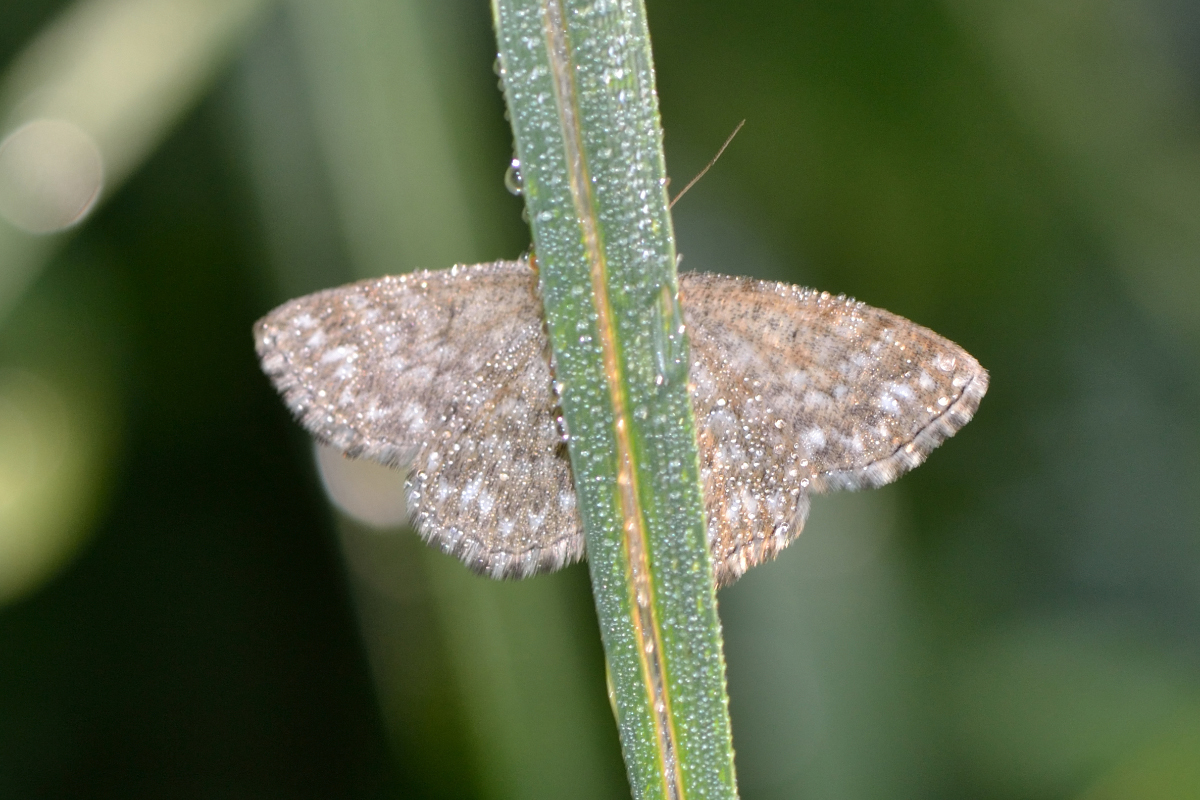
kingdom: Animalia
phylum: Arthropoda
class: Insecta
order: Lepidoptera
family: Geometridae
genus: Scopula
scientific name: Scopula immorata
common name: Lewes wave
